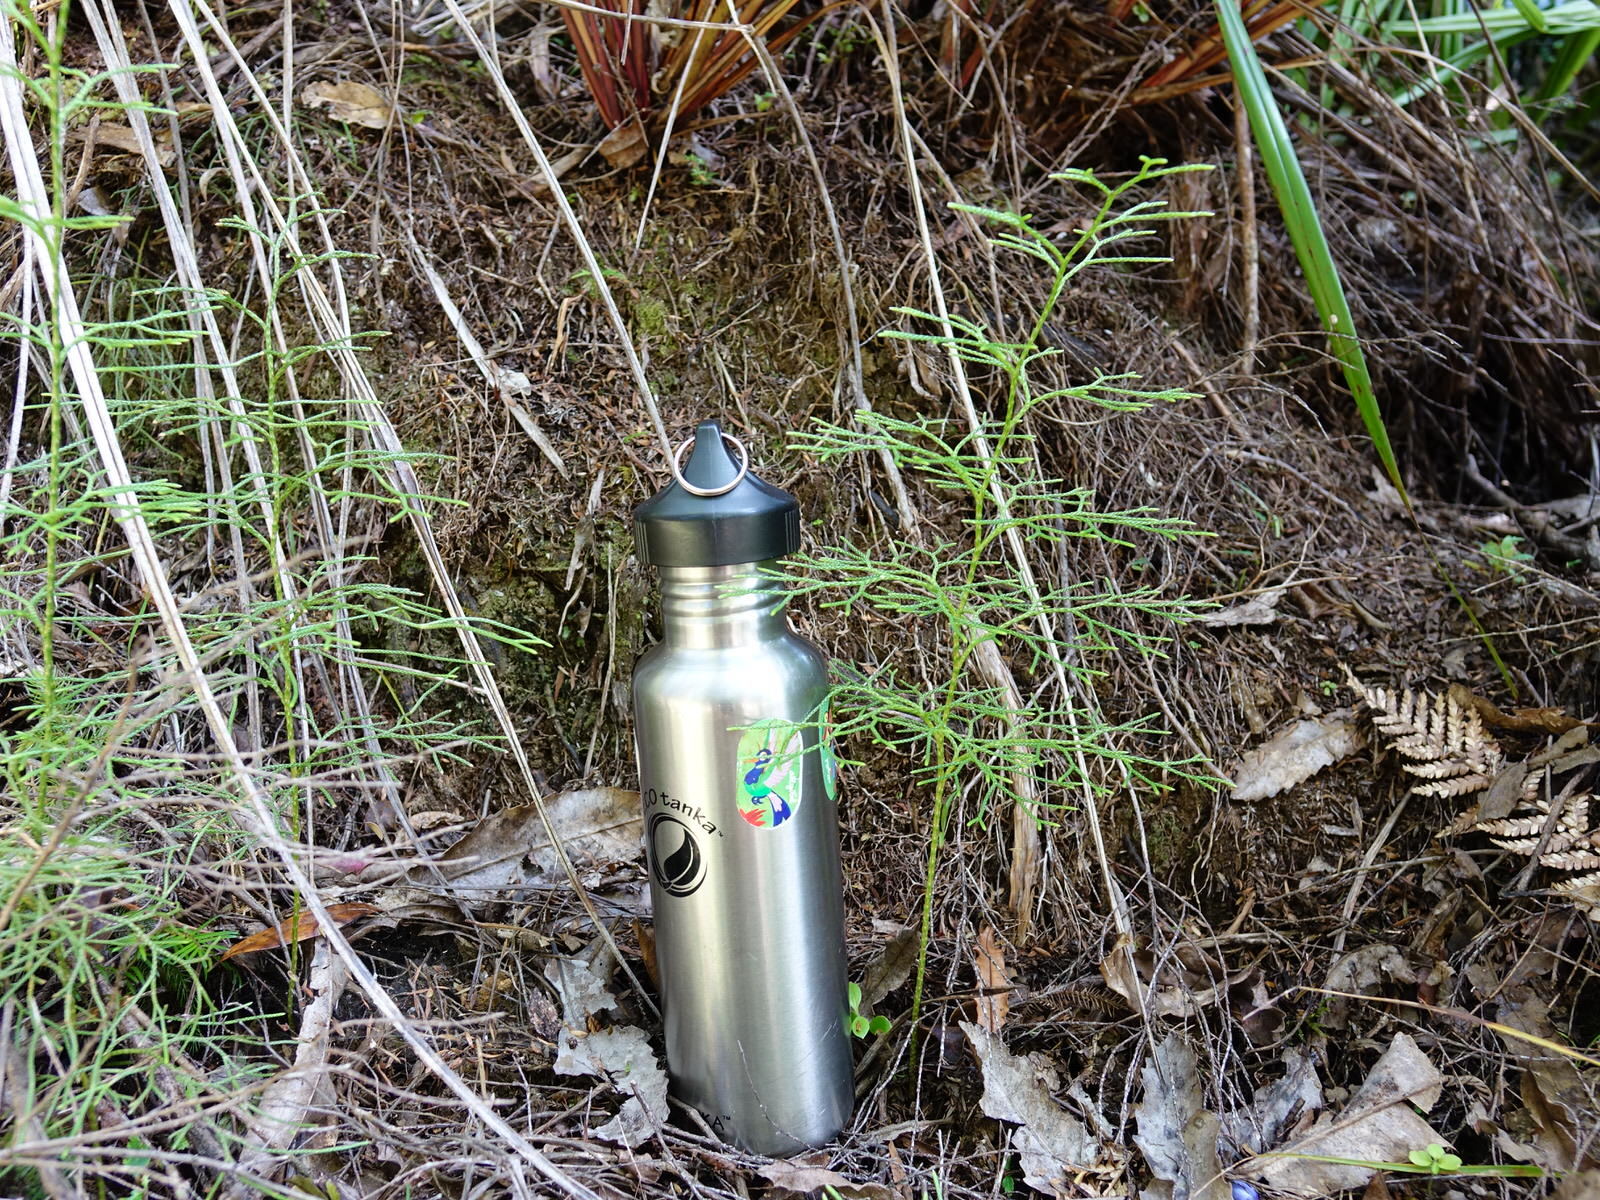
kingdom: Plantae
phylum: Tracheophyta
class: Lycopodiopsida
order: Lycopodiales
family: Lycopodiaceae
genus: Pseudolycopodium
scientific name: Pseudolycopodium densum
